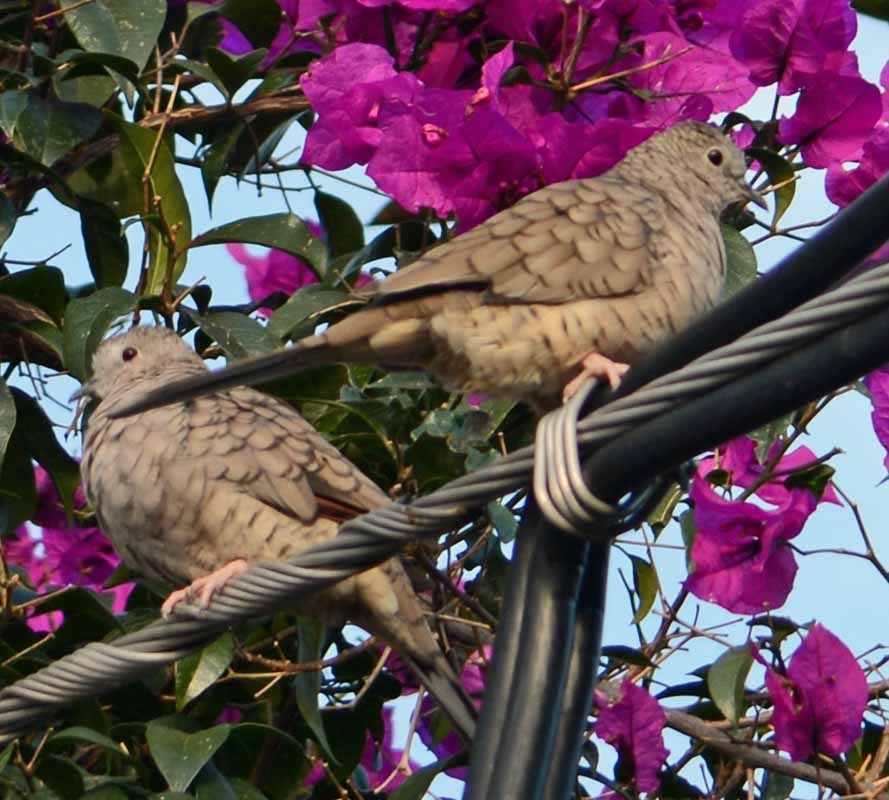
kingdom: Animalia
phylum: Chordata
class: Aves
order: Columbiformes
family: Columbidae
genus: Columbina
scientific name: Columbina inca
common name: Inca dove
